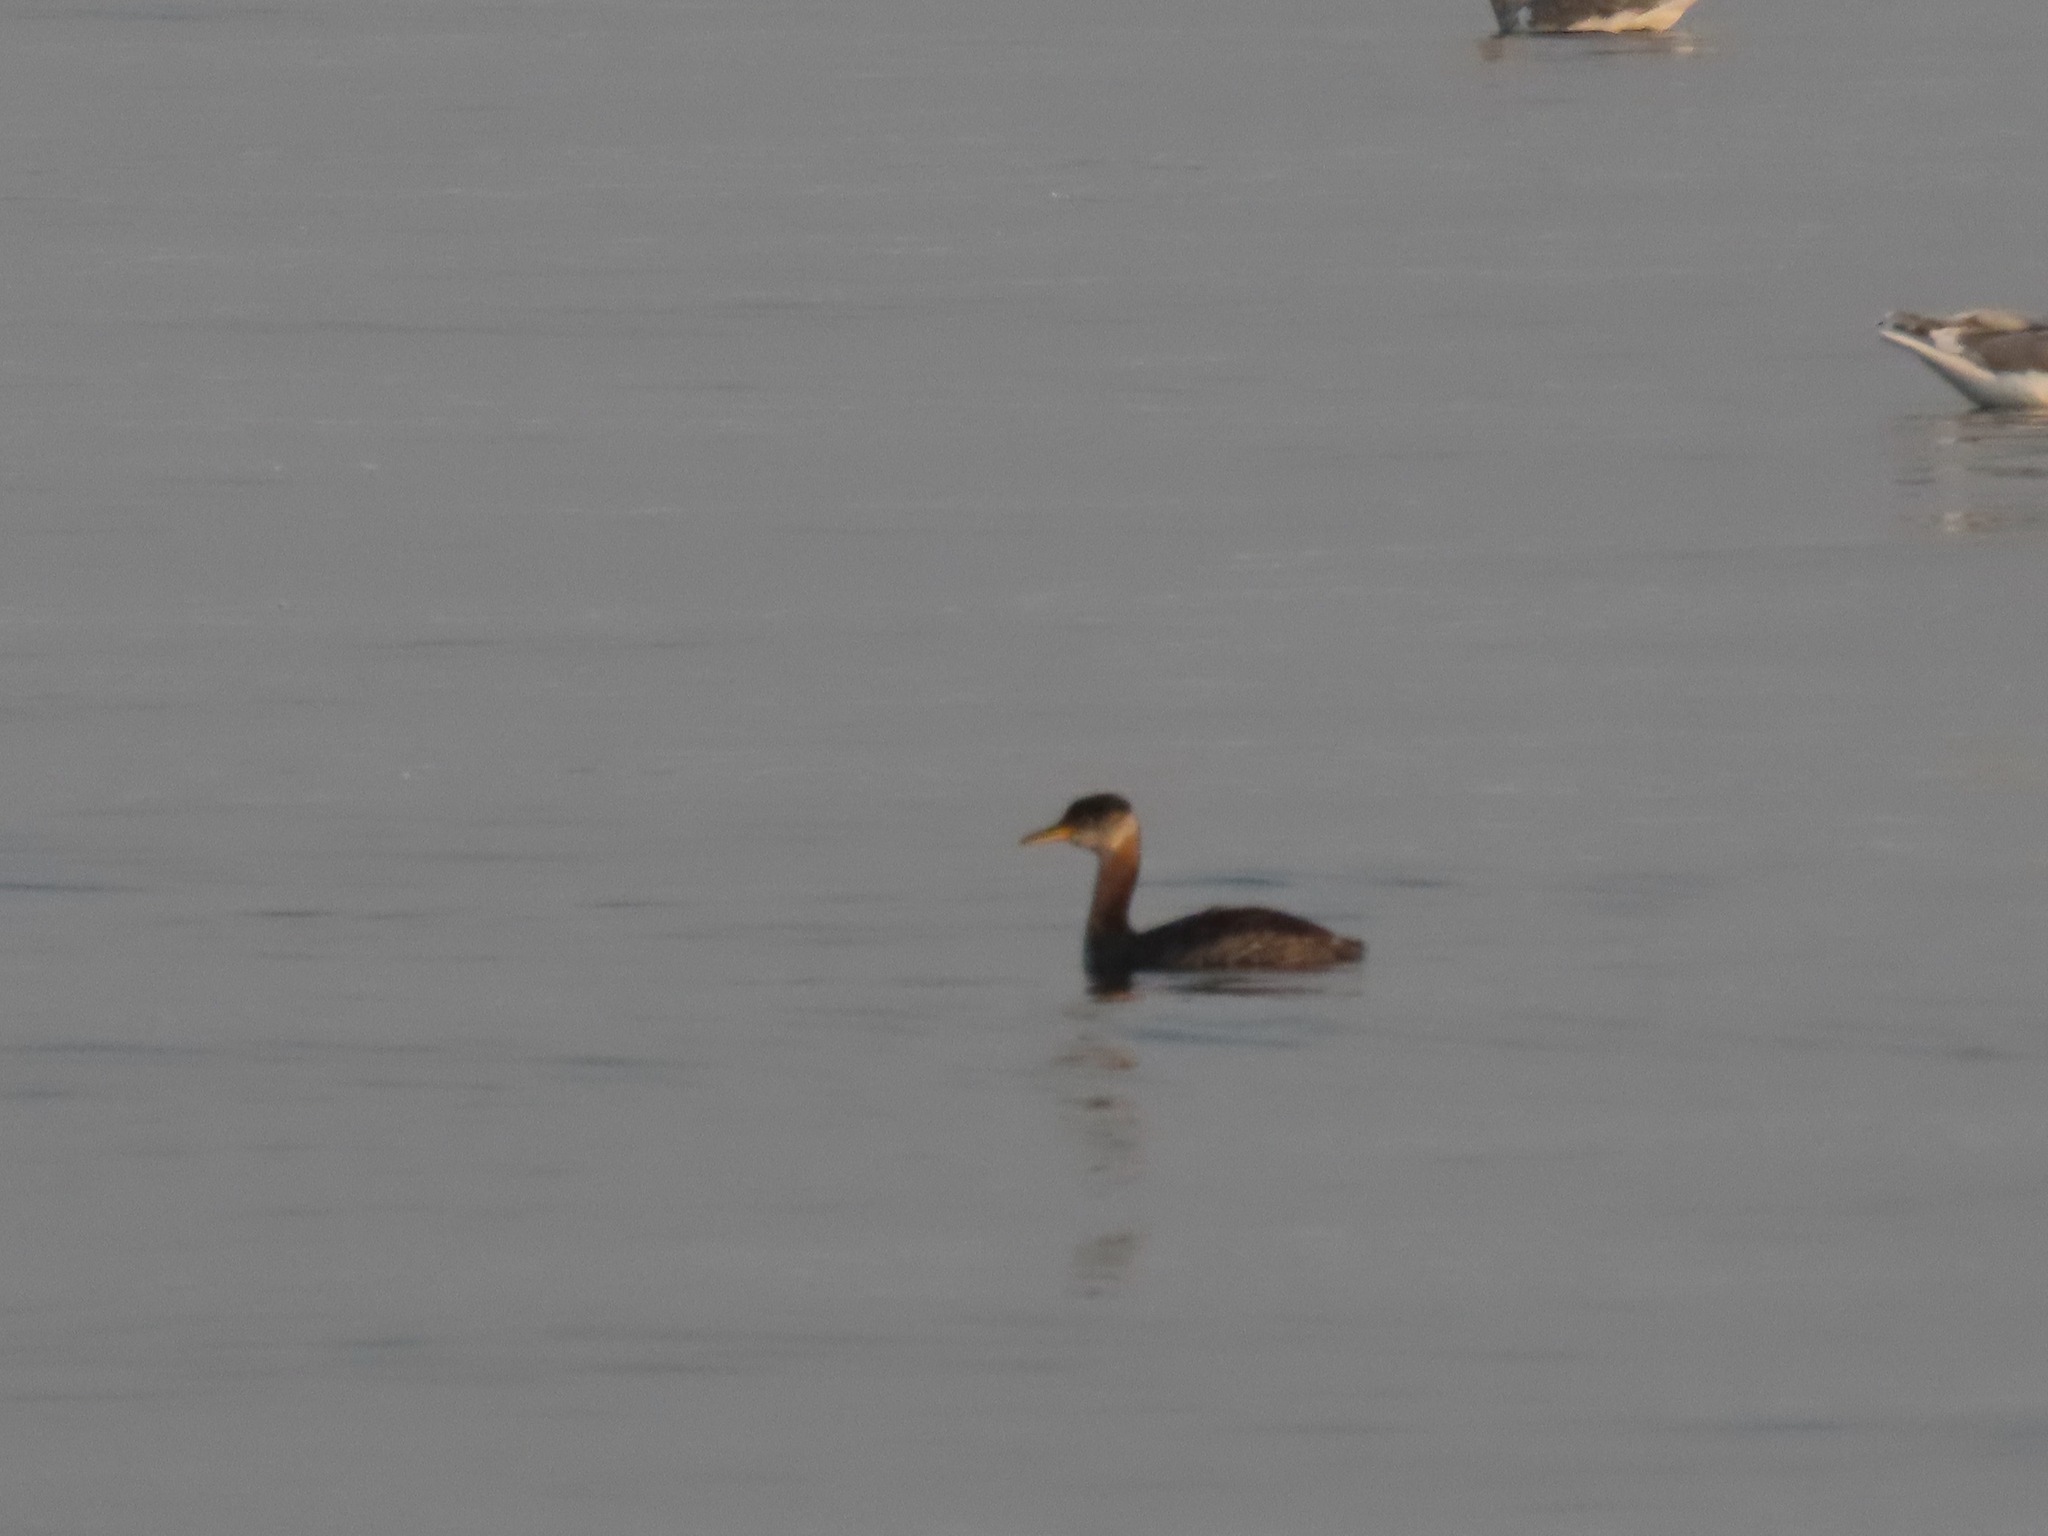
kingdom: Animalia
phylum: Chordata
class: Aves
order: Podicipediformes
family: Podicipedidae
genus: Podiceps
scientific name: Podiceps grisegena
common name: Red-necked grebe
